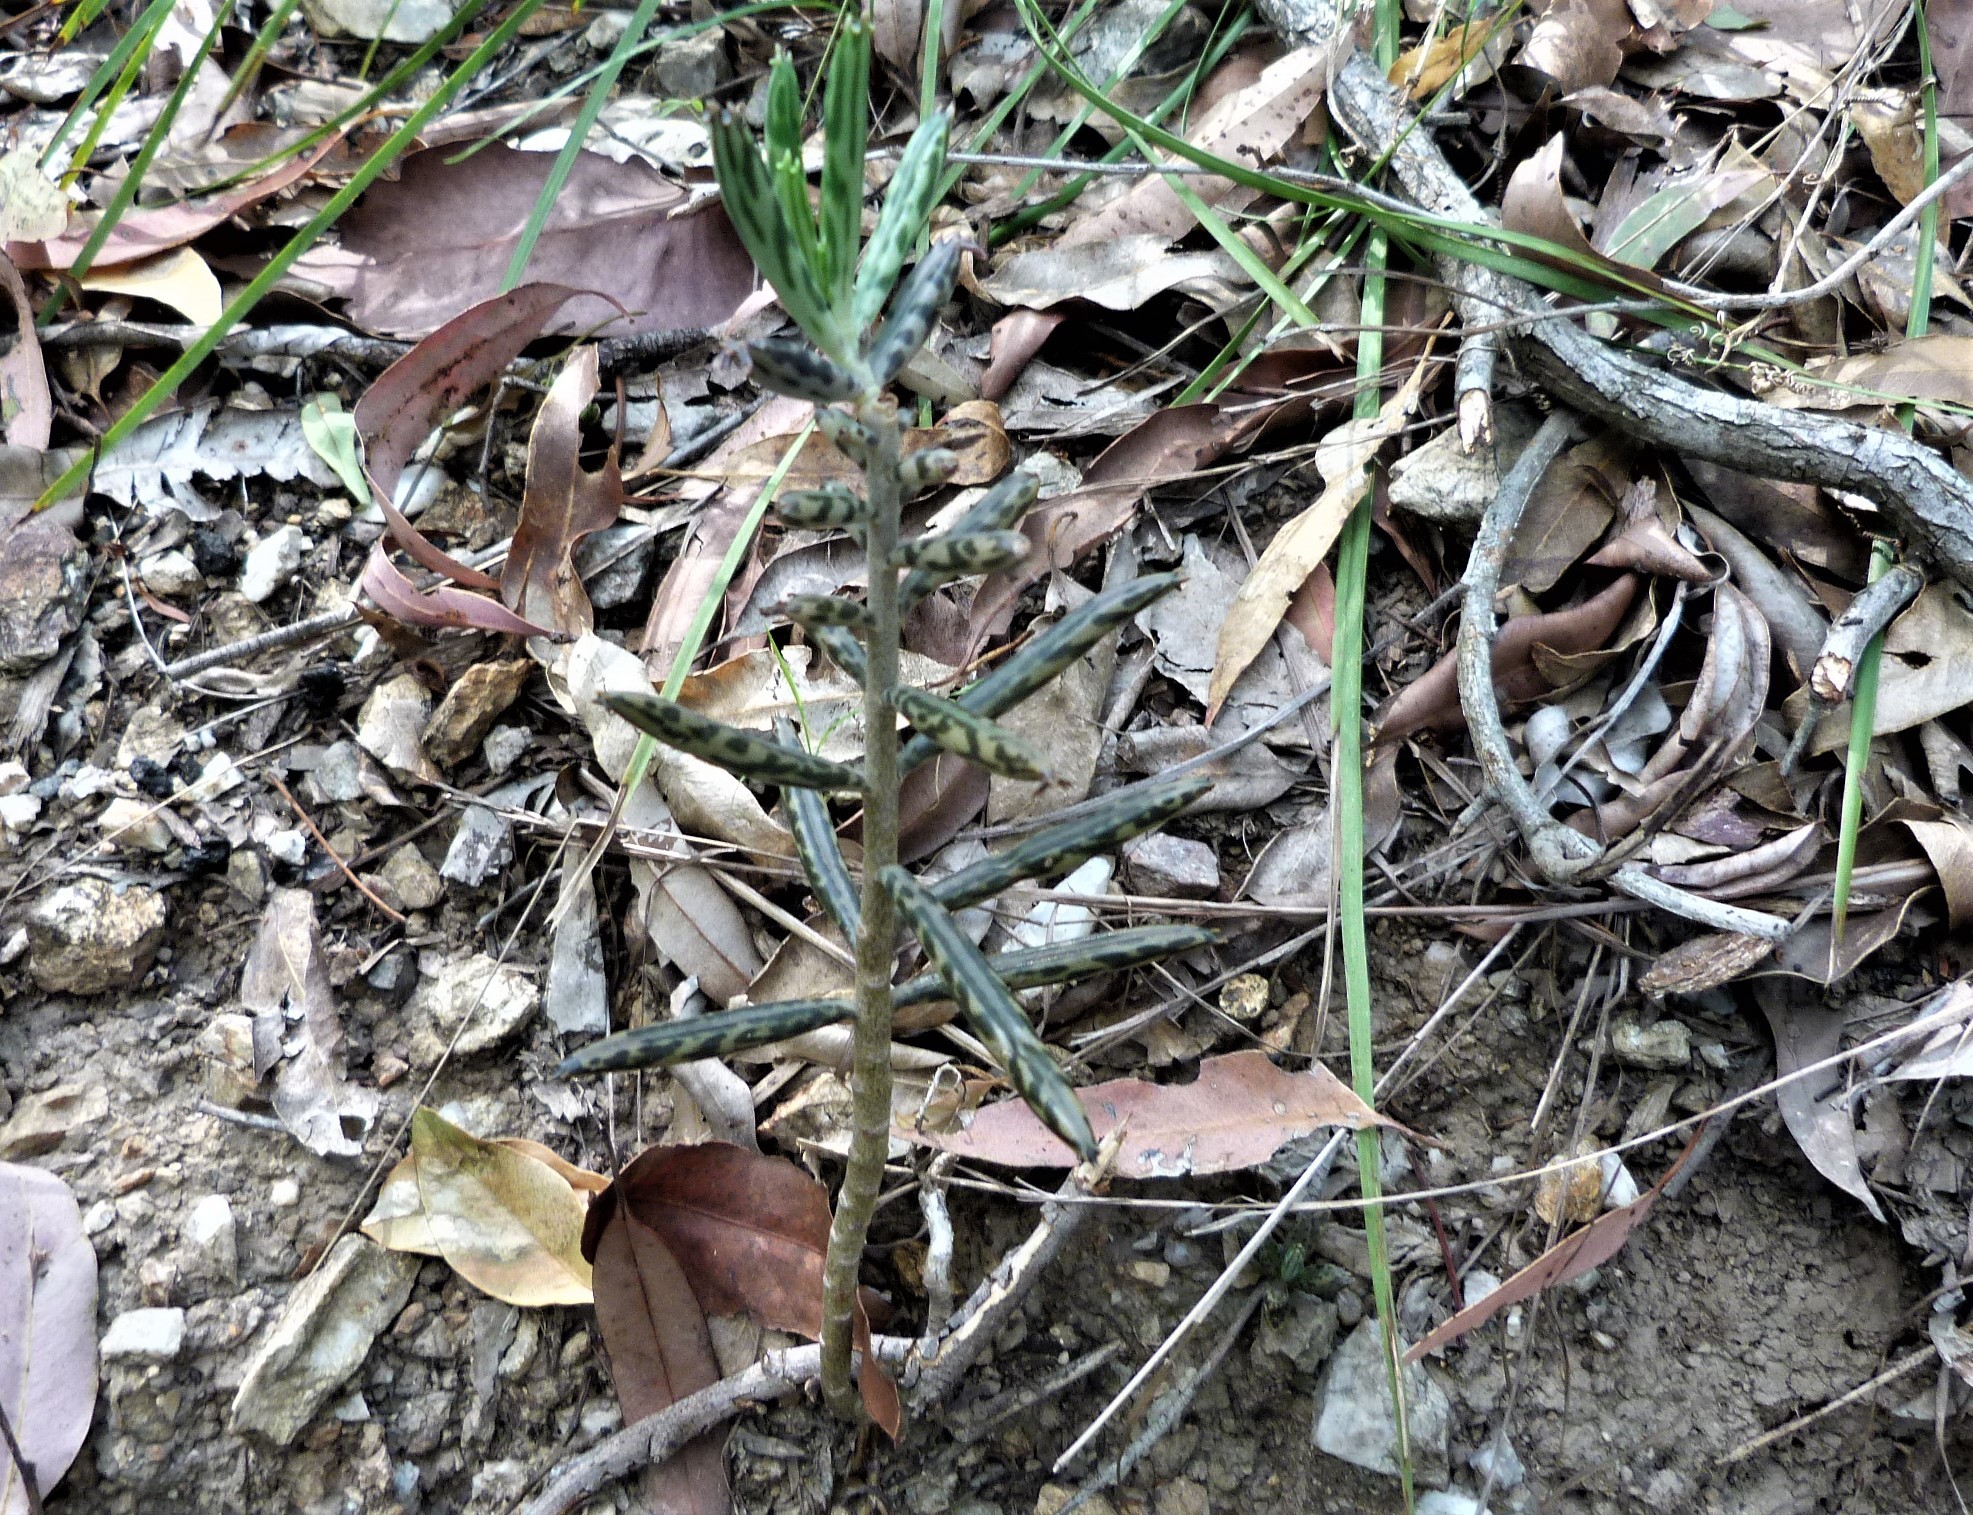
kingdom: Plantae
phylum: Tracheophyta
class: Magnoliopsida
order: Saxifragales
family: Crassulaceae
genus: Kalanchoe
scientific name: Kalanchoe delagoensis
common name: Chandelier plant
